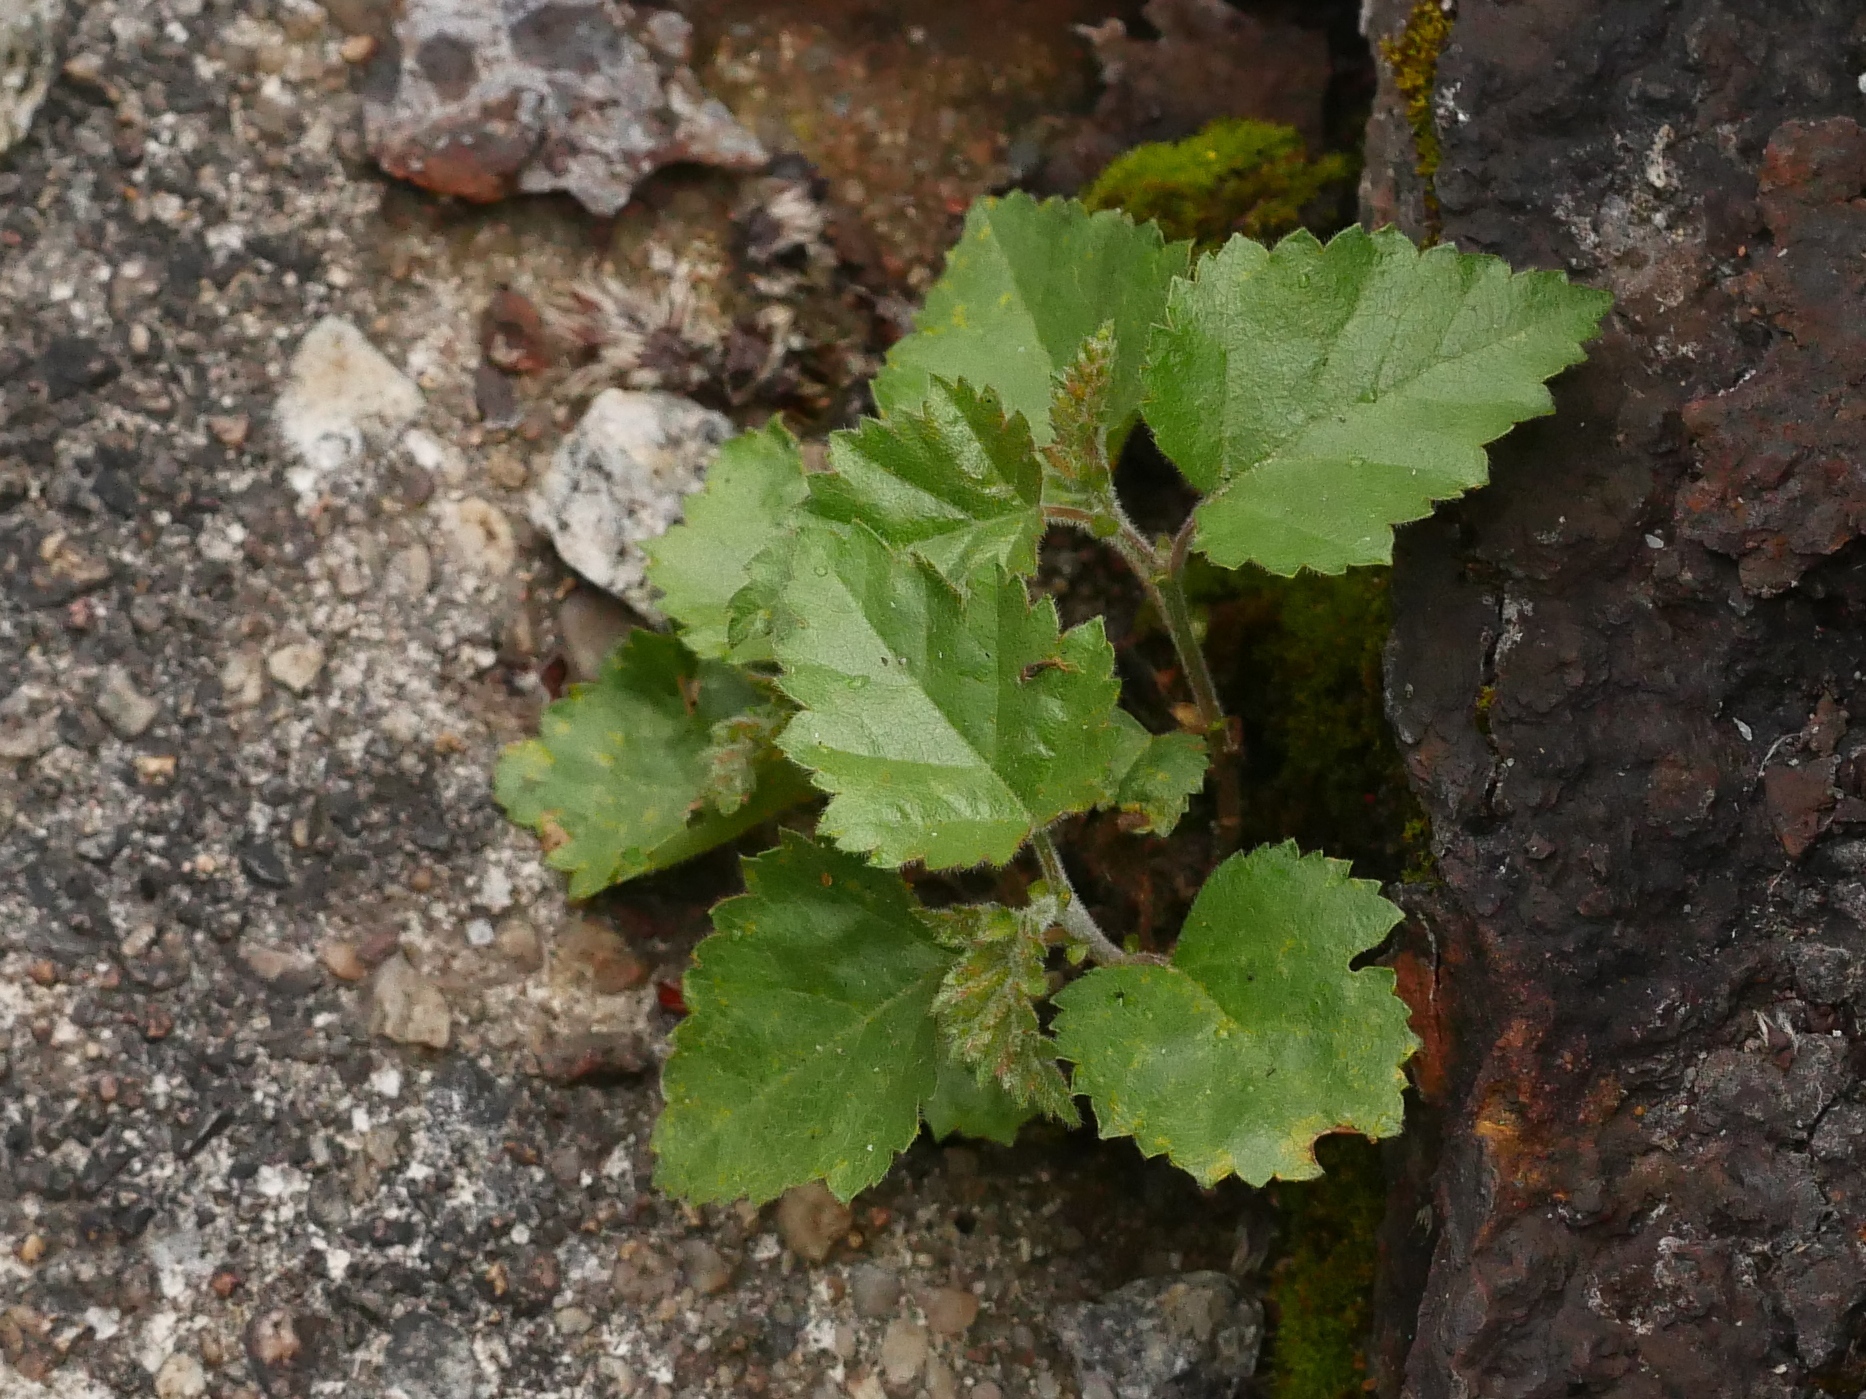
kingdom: Plantae
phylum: Tracheophyta
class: Magnoliopsida
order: Fagales
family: Betulaceae
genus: Betula
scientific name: Betula pendula
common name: Silver birch
